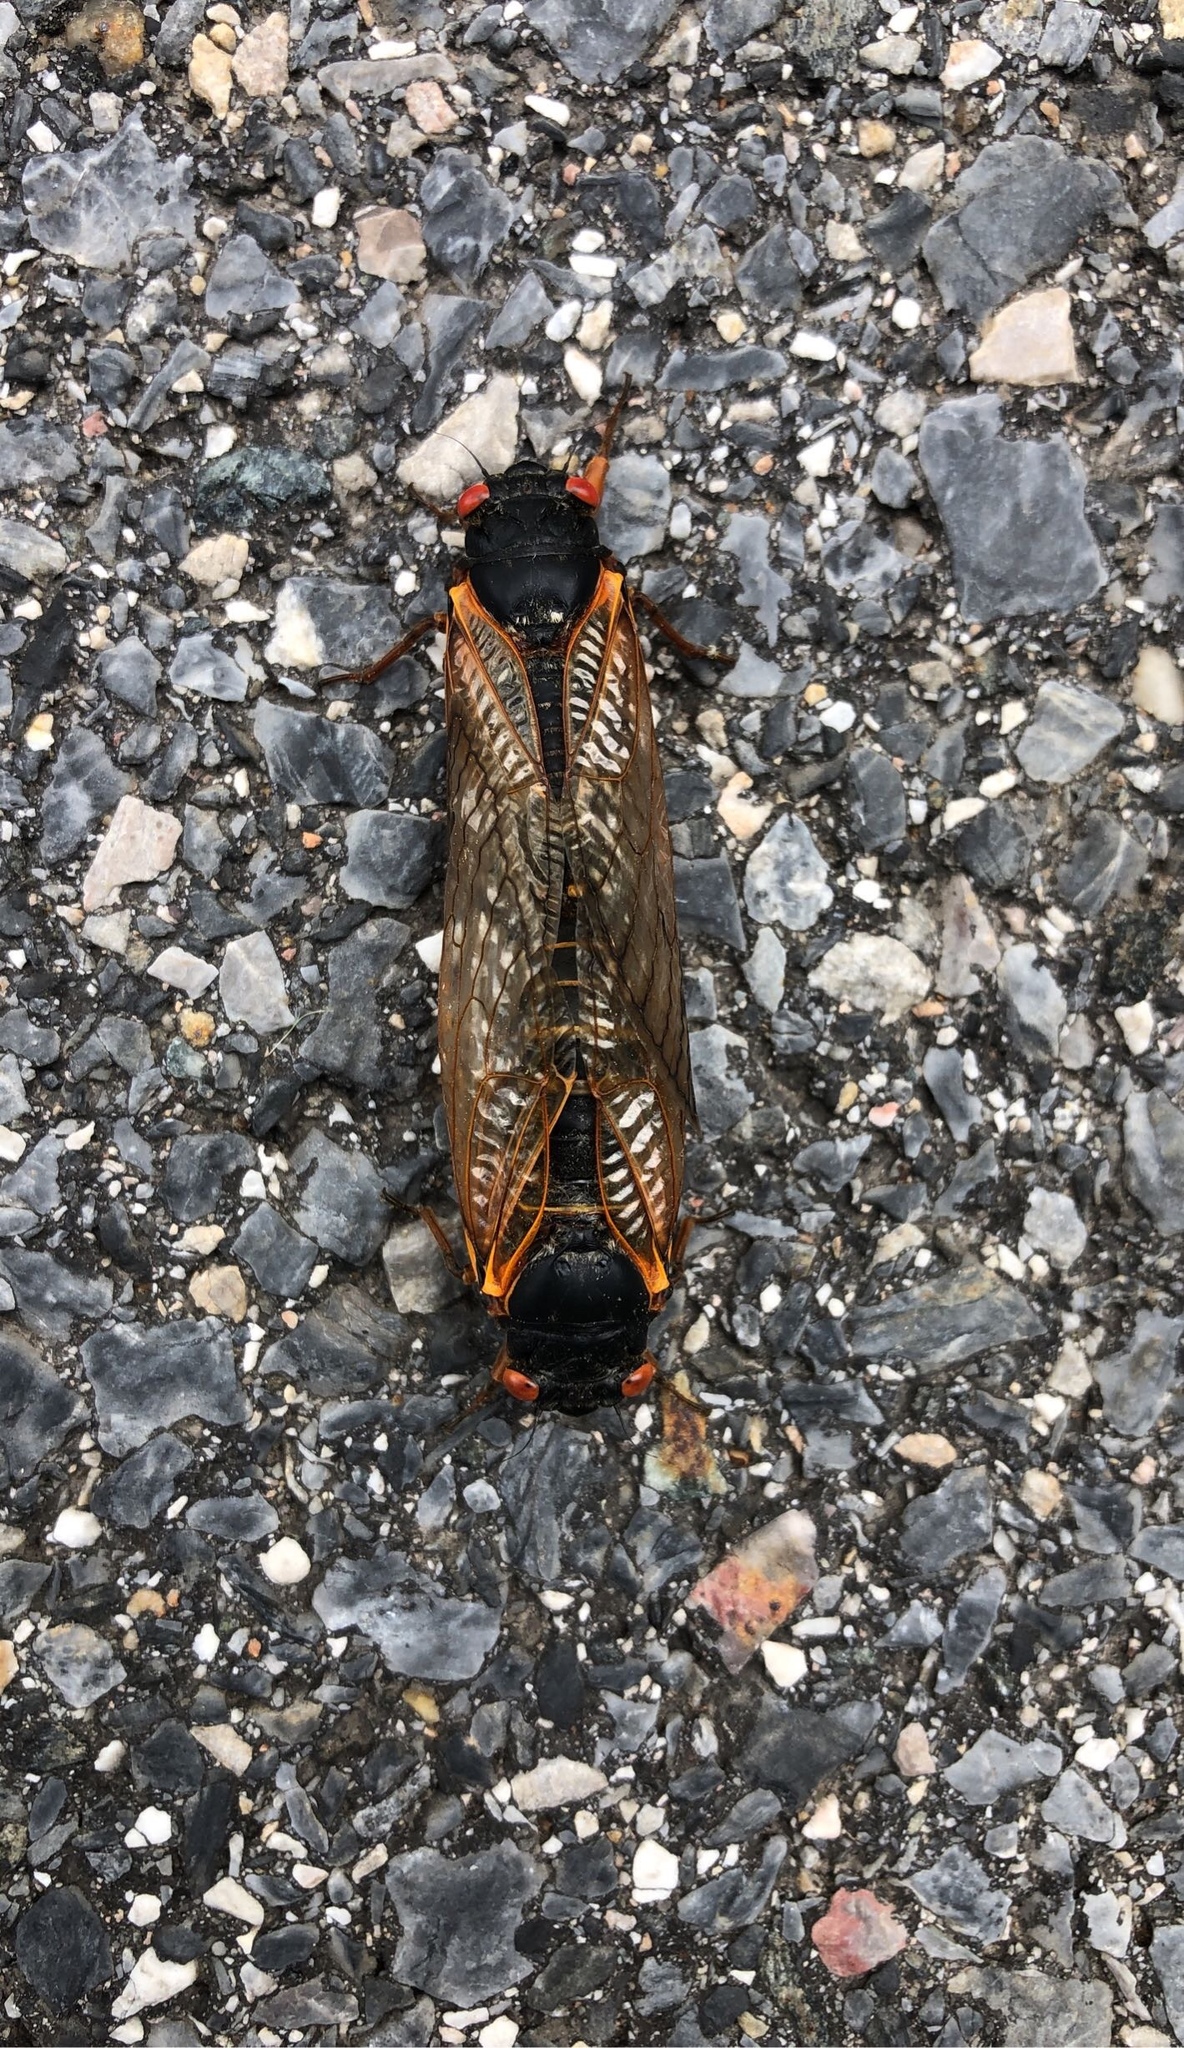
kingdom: Animalia
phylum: Arthropoda
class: Insecta
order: Hemiptera
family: Cicadidae
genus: Magicicada
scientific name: Magicicada
